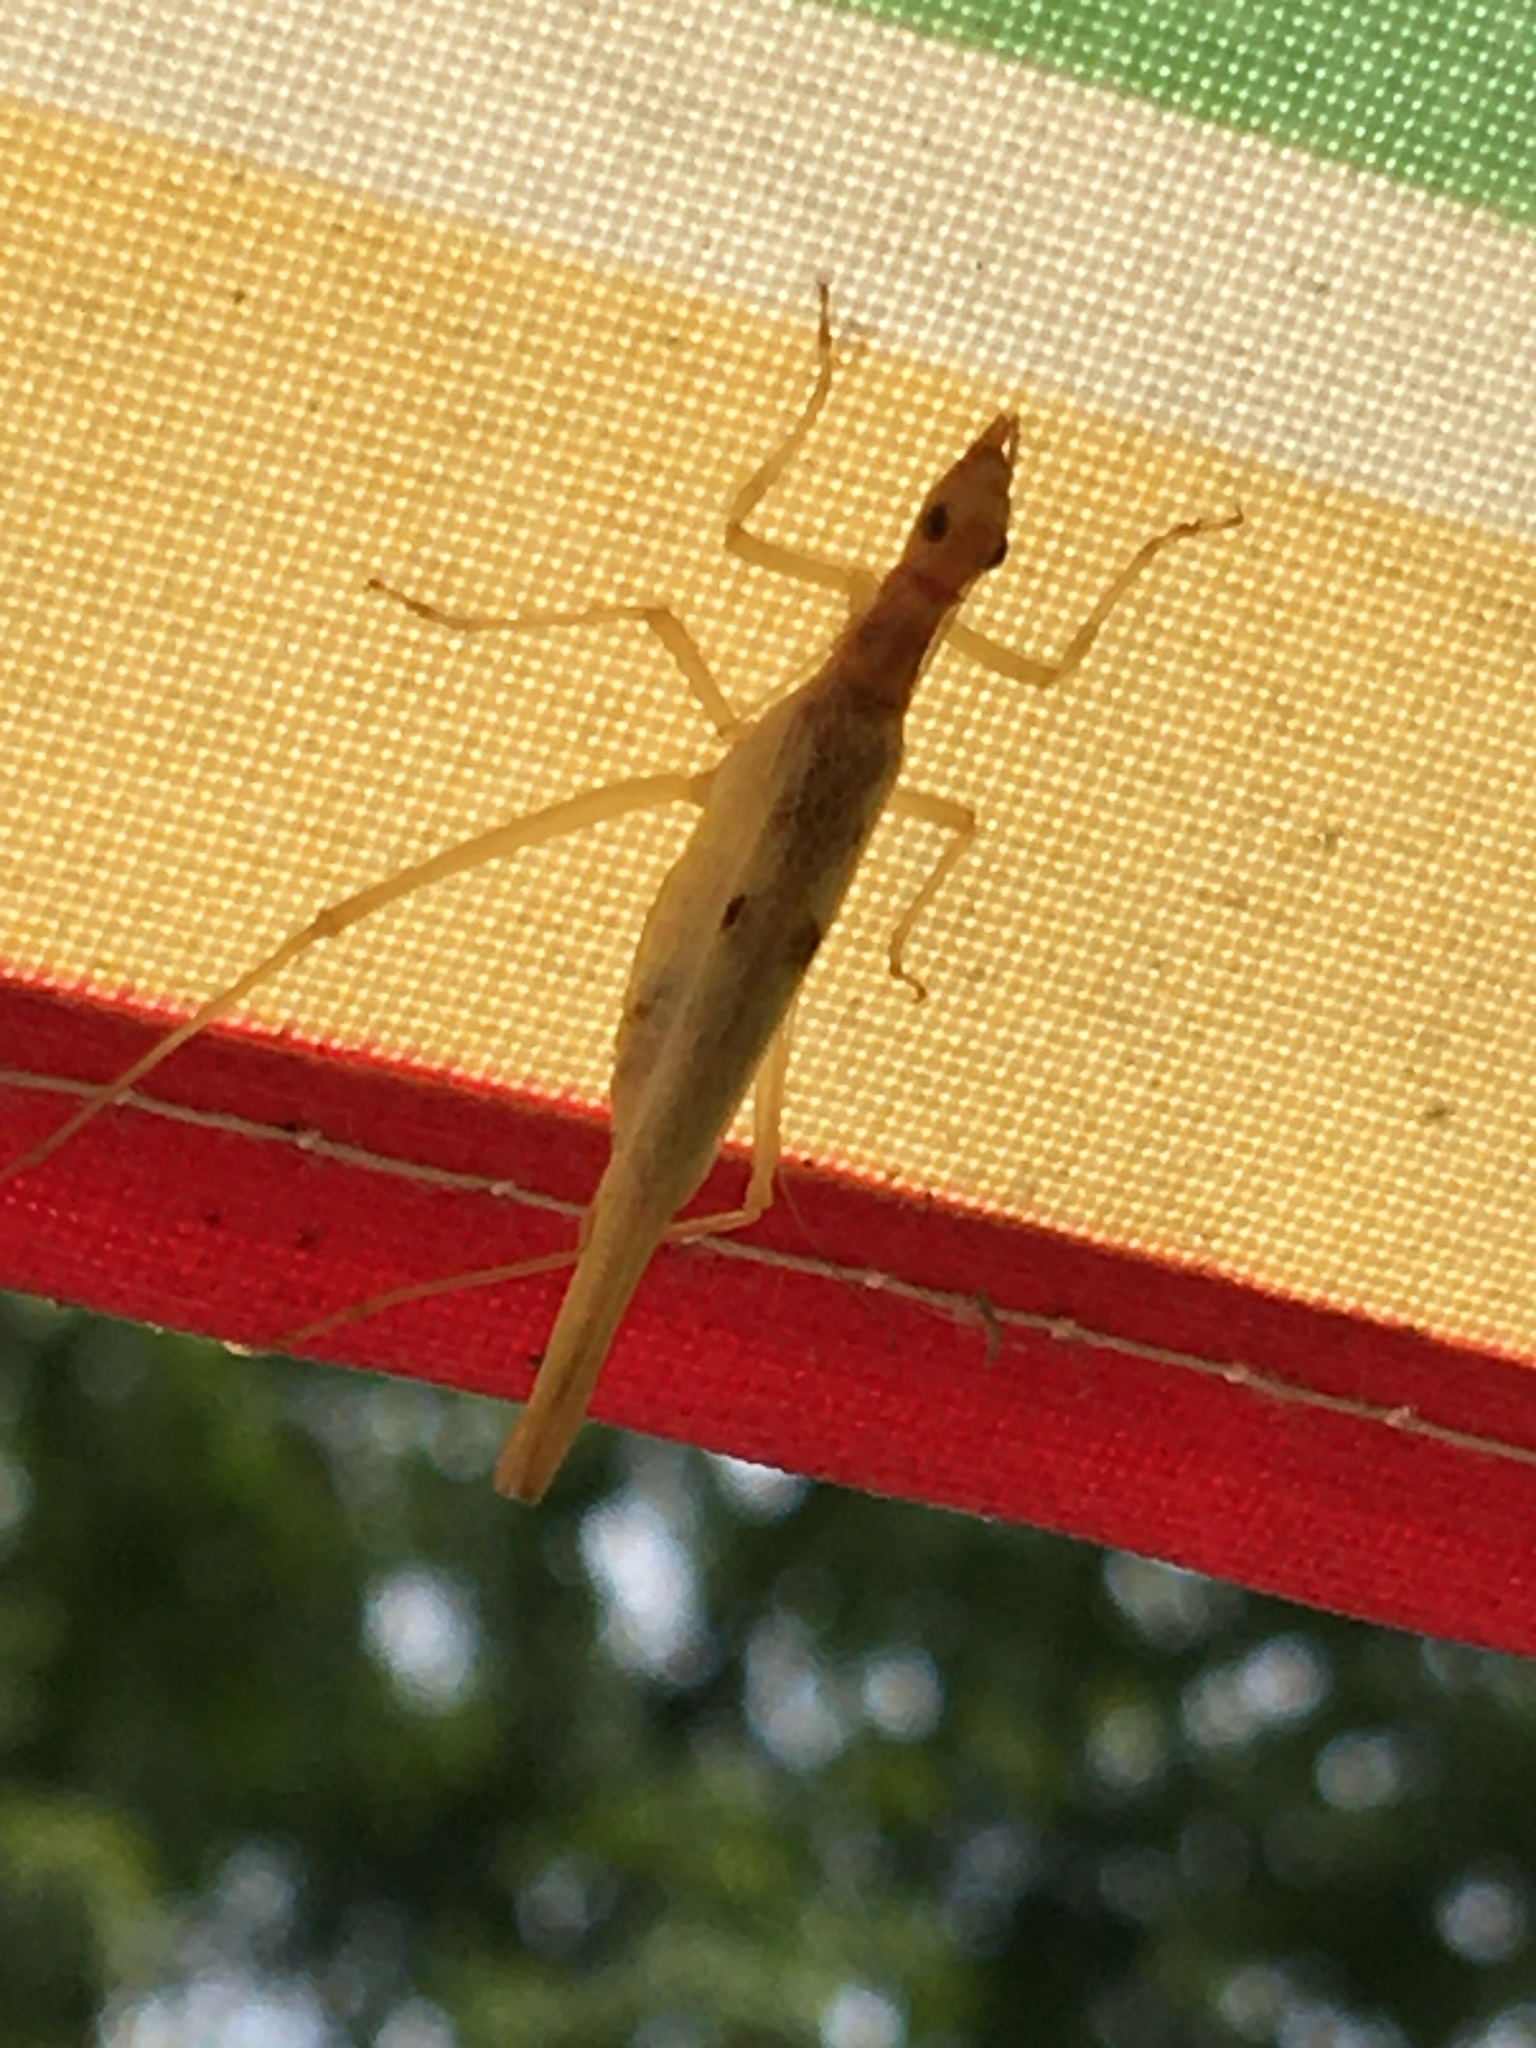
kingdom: Animalia
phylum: Arthropoda
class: Insecta
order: Orthoptera
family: Gryllidae
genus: Neoxabea
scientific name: Neoxabea bipunctata
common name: Two-spotted tree cricket
